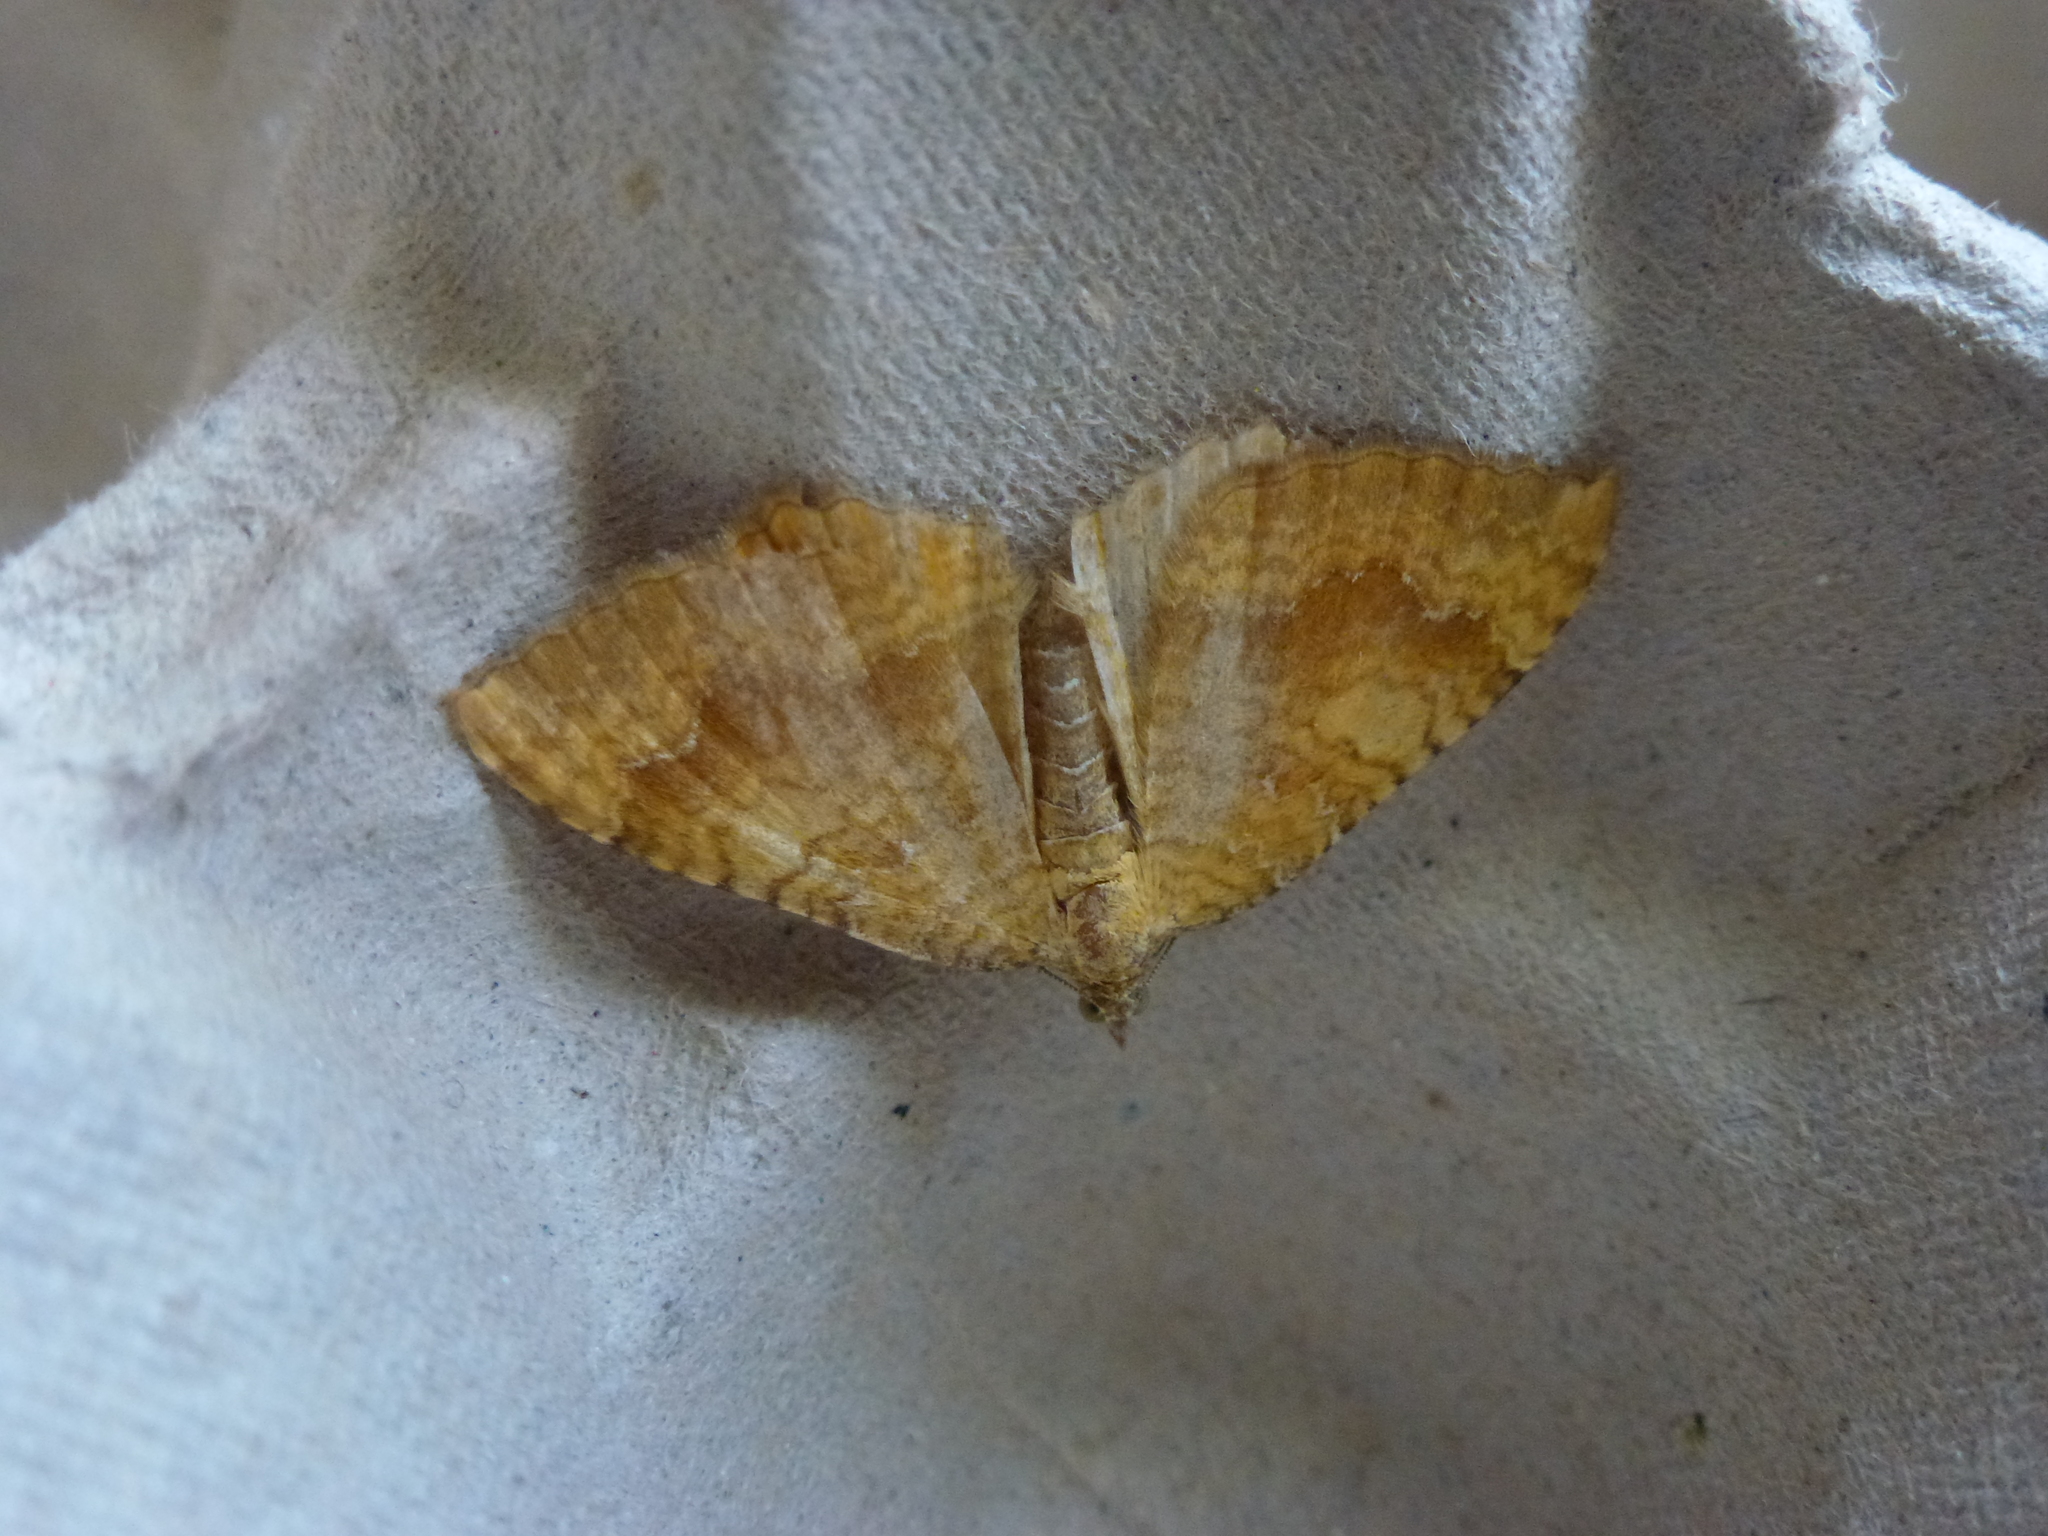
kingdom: Animalia
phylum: Arthropoda
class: Insecta
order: Lepidoptera
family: Geometridae
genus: Camptogramma
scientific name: Camptogramma bilineata
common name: Yellow shell
